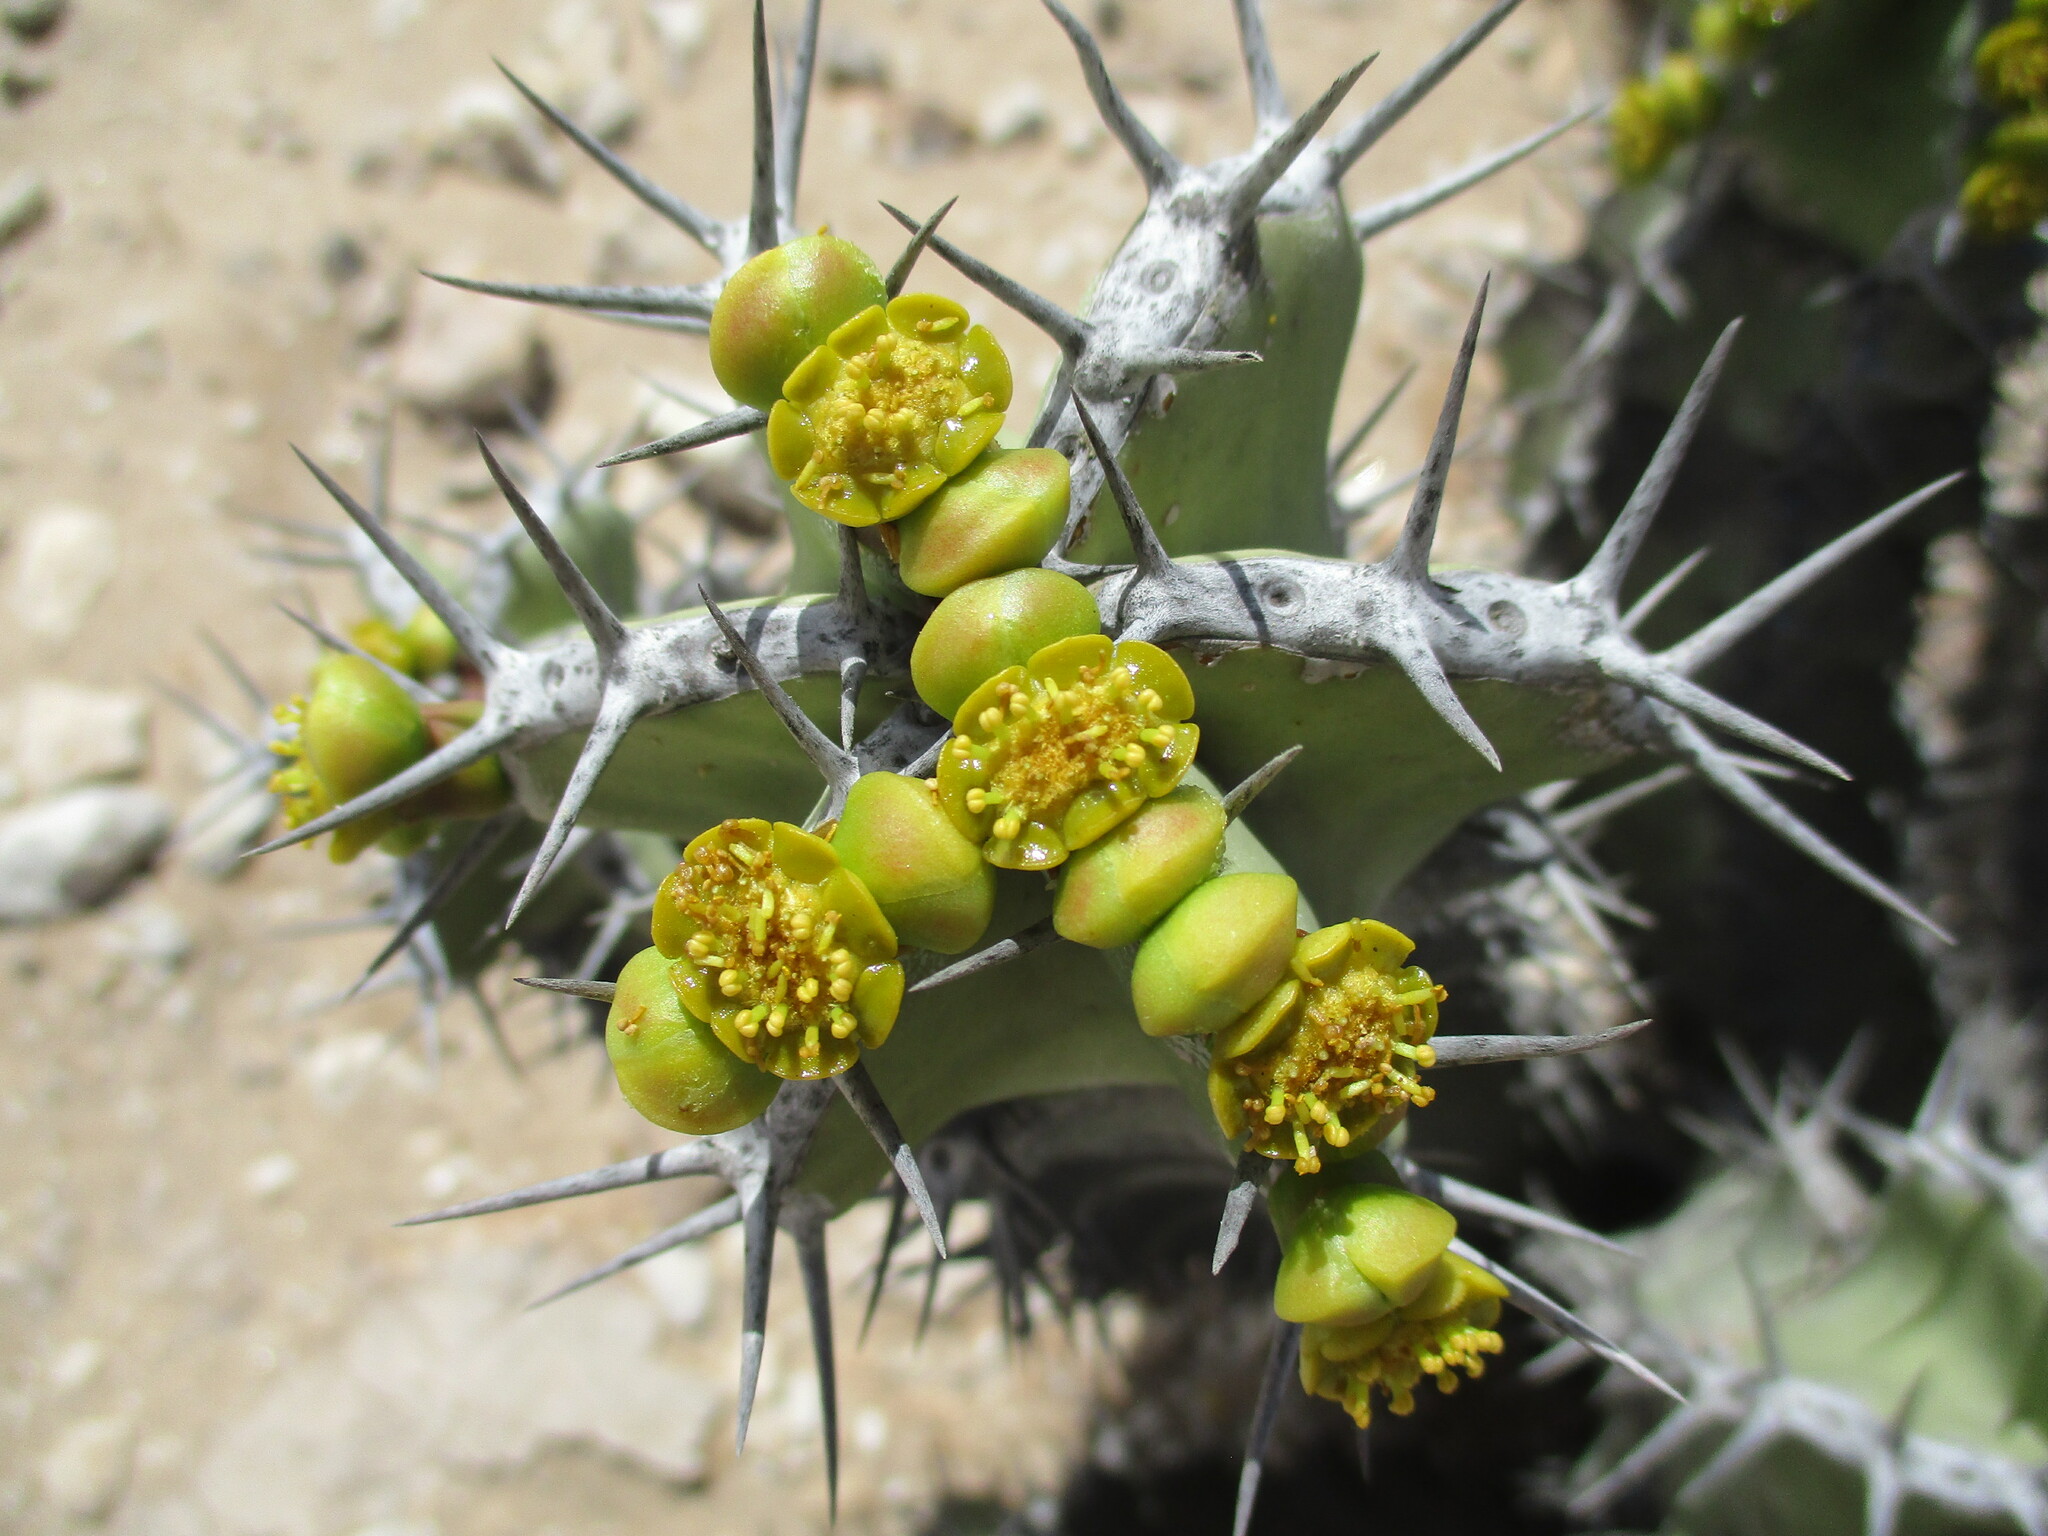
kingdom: Plantae
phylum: Tracheophyta
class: Magnoliopsida
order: Malpighiales
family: Euphorbiaceae
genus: Euphorbia
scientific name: Euphorbia virosa
